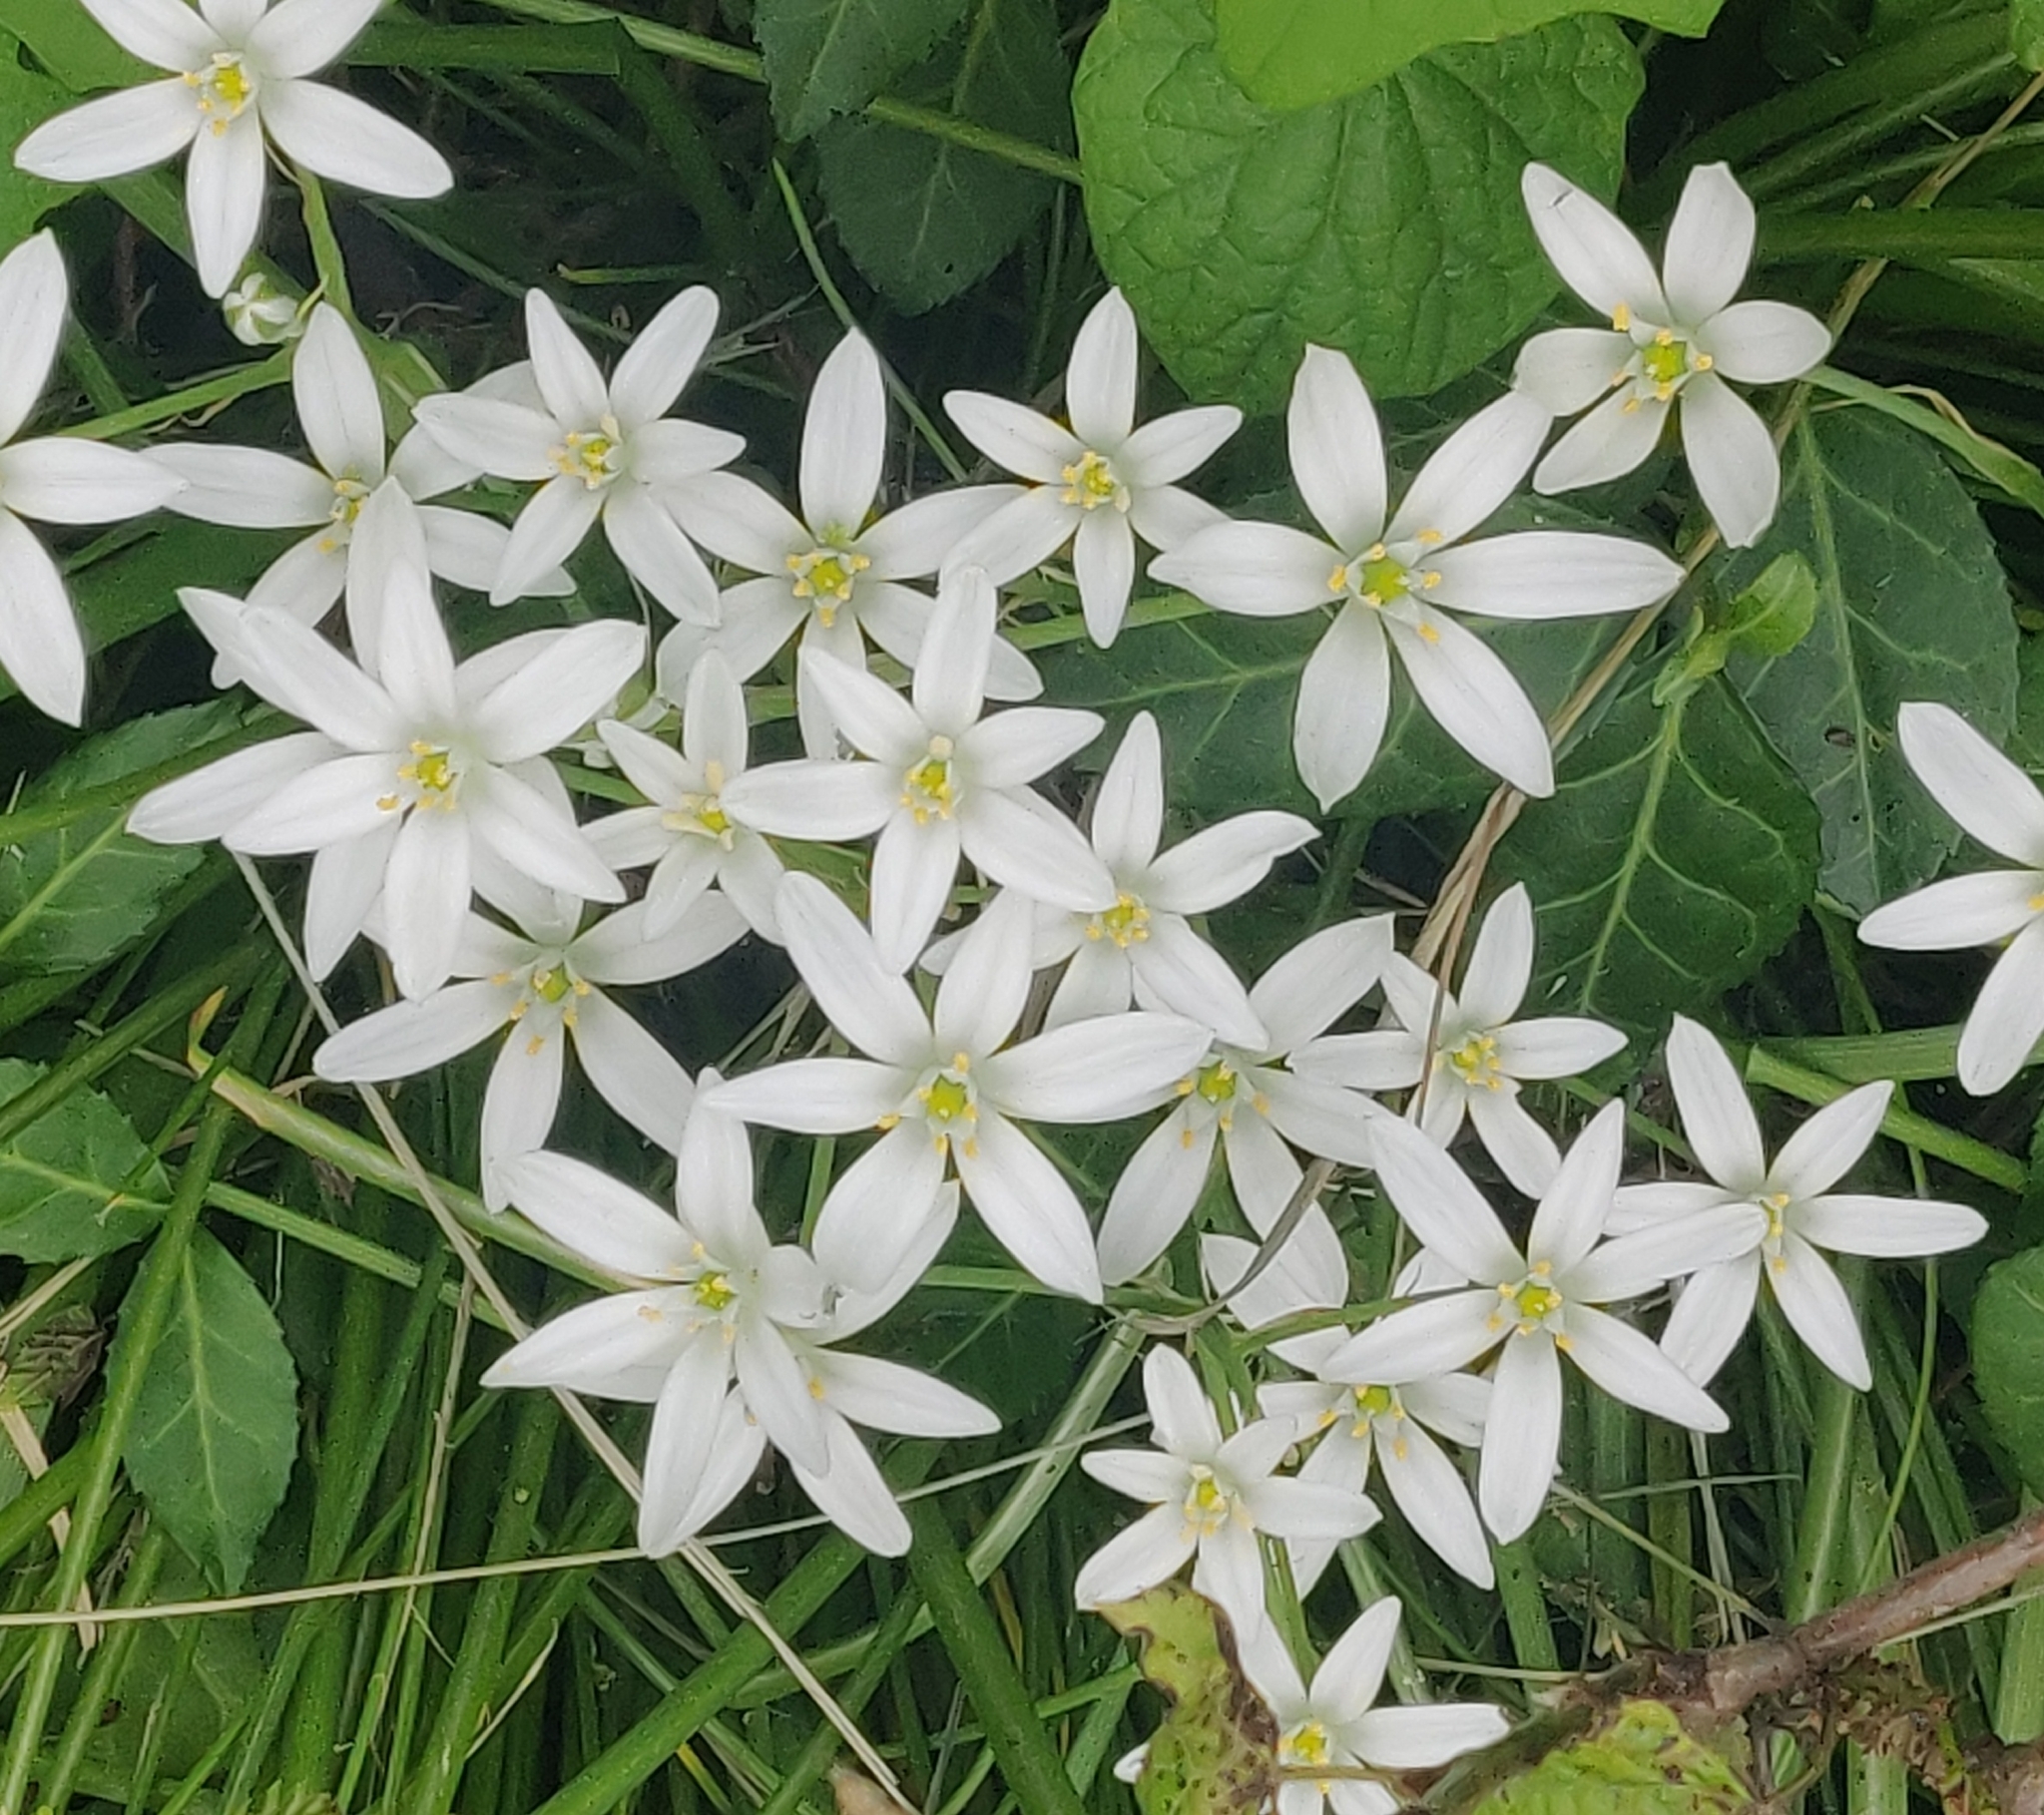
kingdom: Plantae
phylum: Tracheophyta
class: Liliopsida
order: Asparagales
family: Asparagaceae
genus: Ornithogalum
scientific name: Ornithogalum umbellatum
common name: Garden star-of-bethlehem
